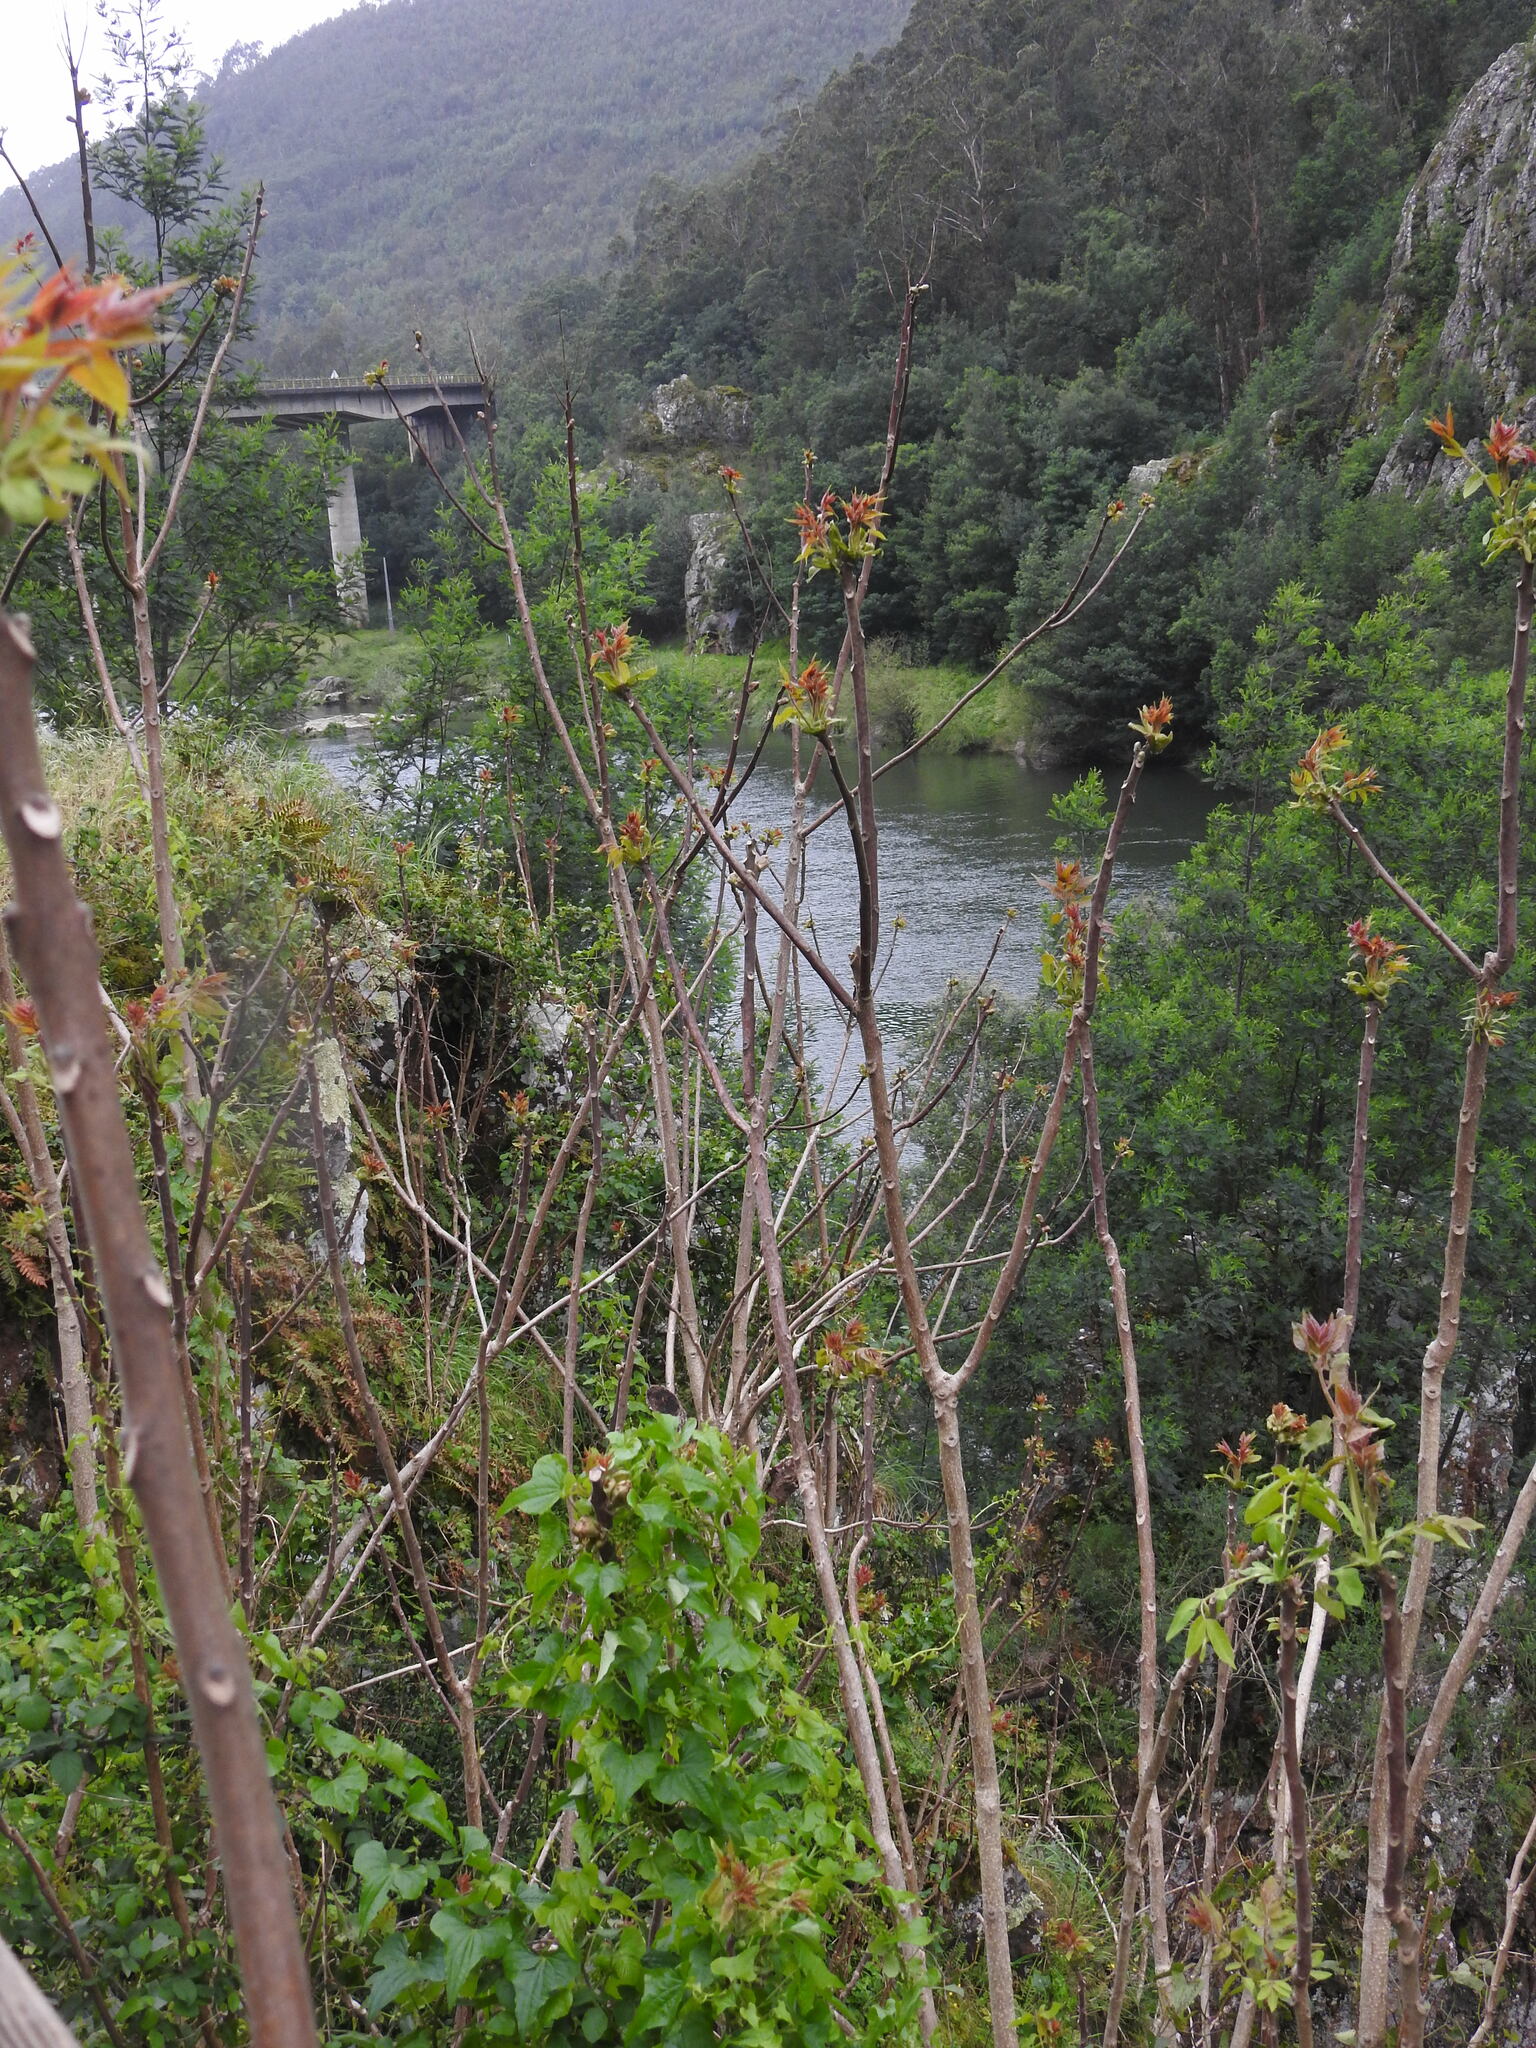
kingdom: Plantae
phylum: Tracheophyta
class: Magnoliopsida
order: Sapindales
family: Simaroubaceae
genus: Ailanthus
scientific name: Ailanthus altissima
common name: Tree-of-heaven
